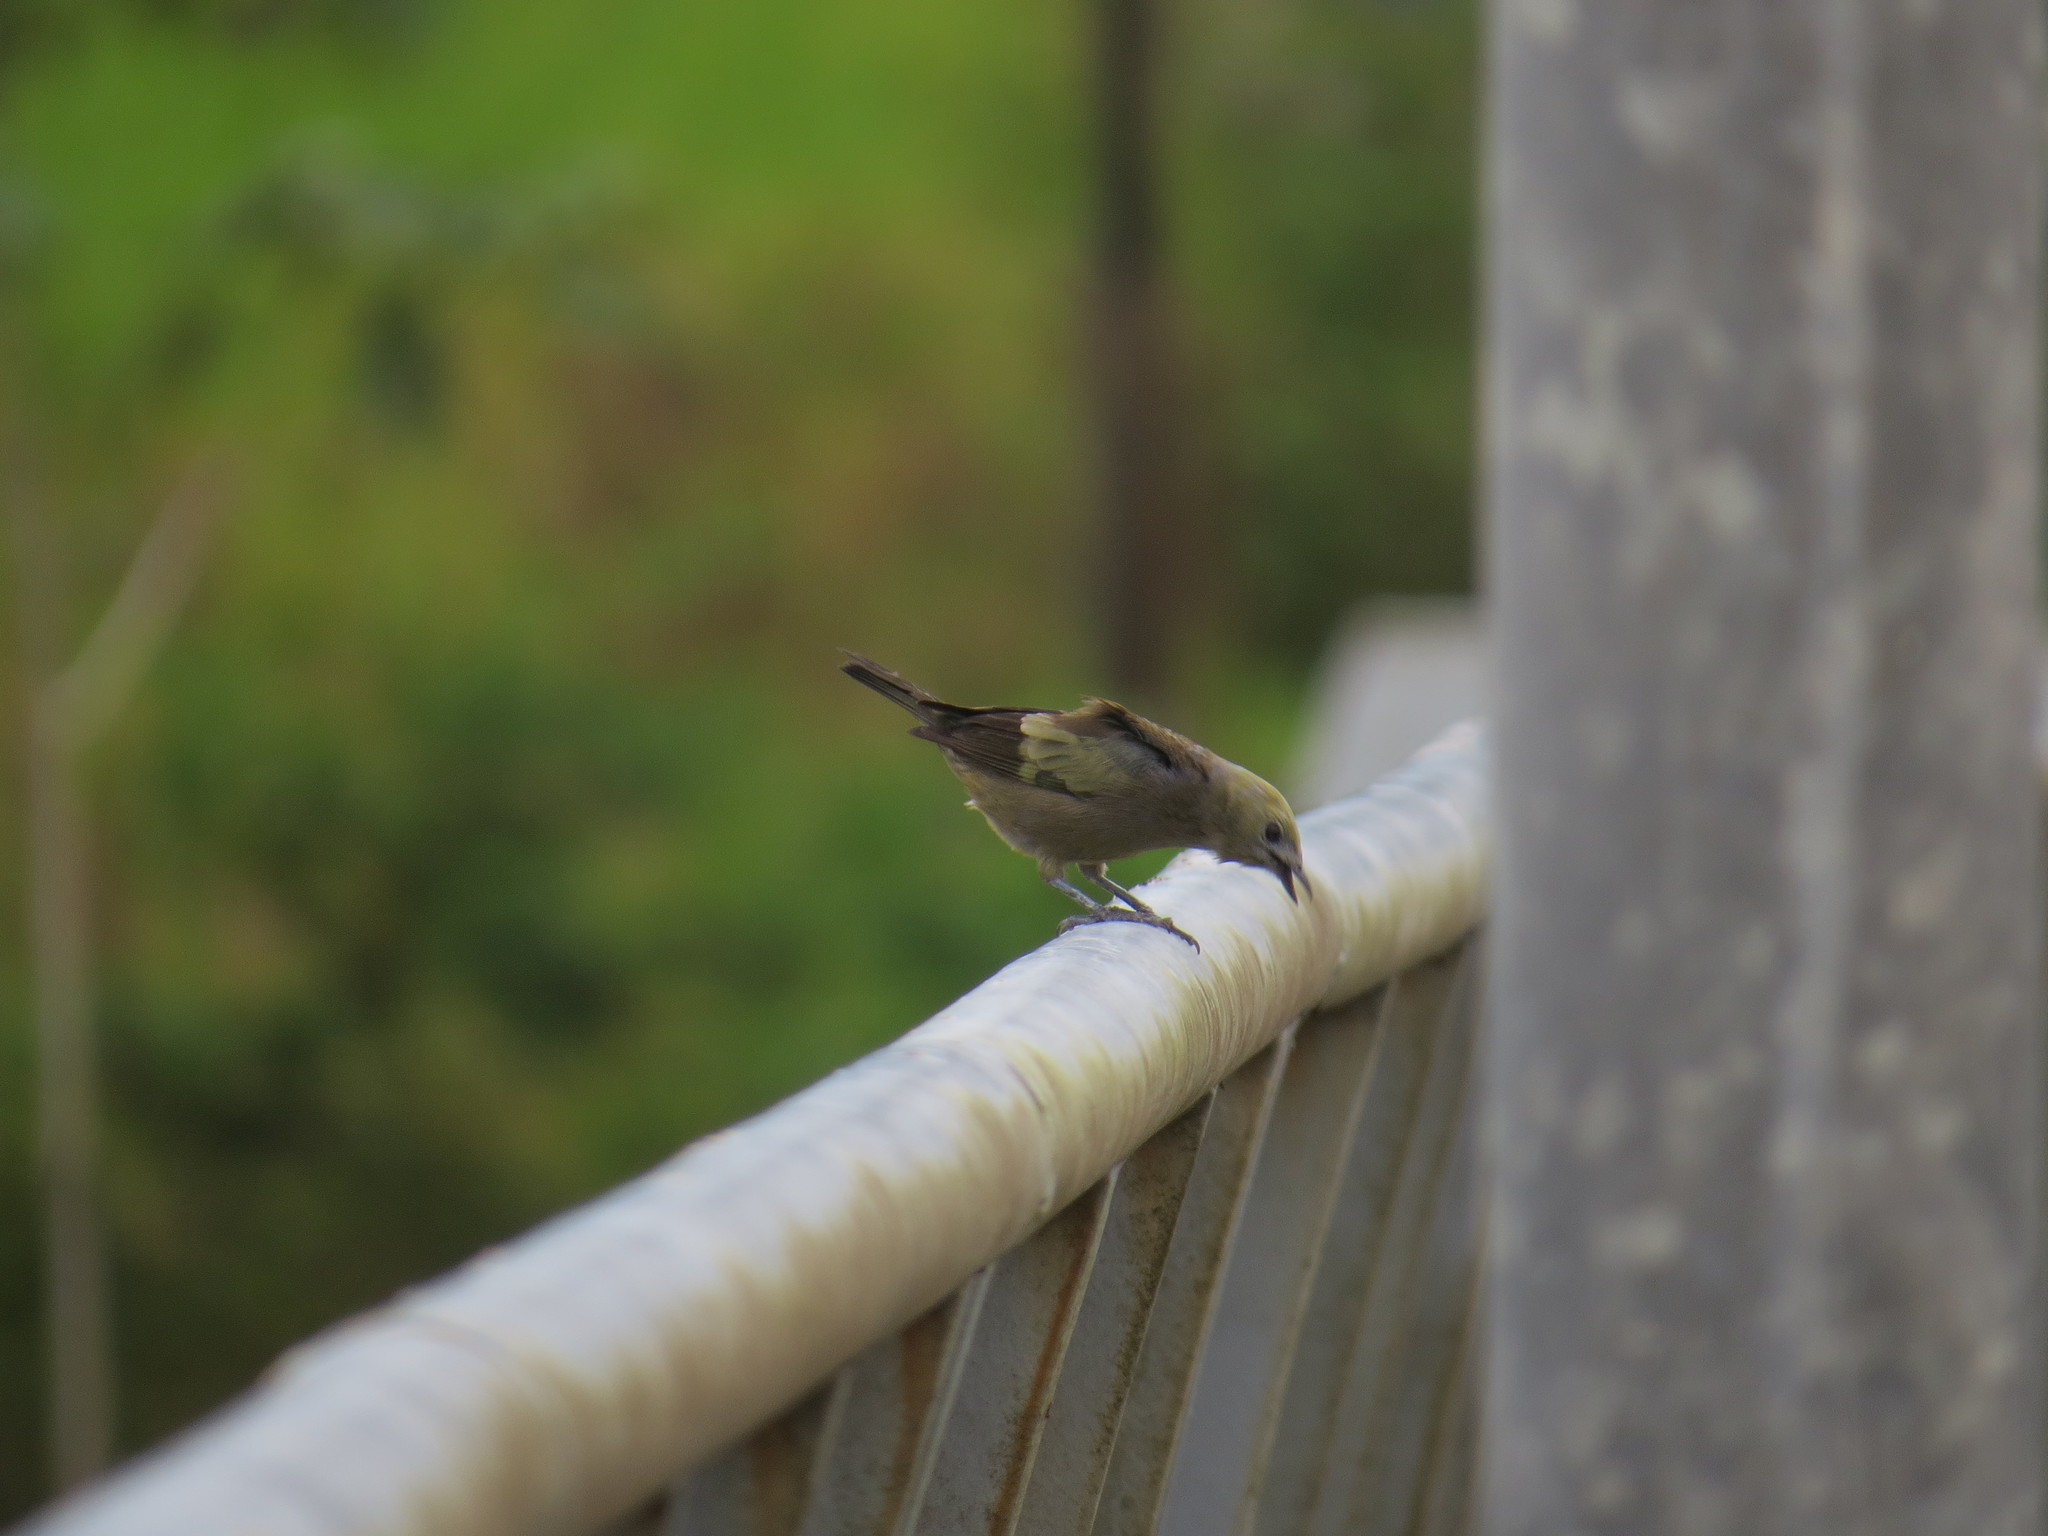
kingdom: Animalia
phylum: Chordata
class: Aves
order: Passeriformes
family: Thraupidae
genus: Thraupis
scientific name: Thraupis palmarum
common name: Palm tanager
